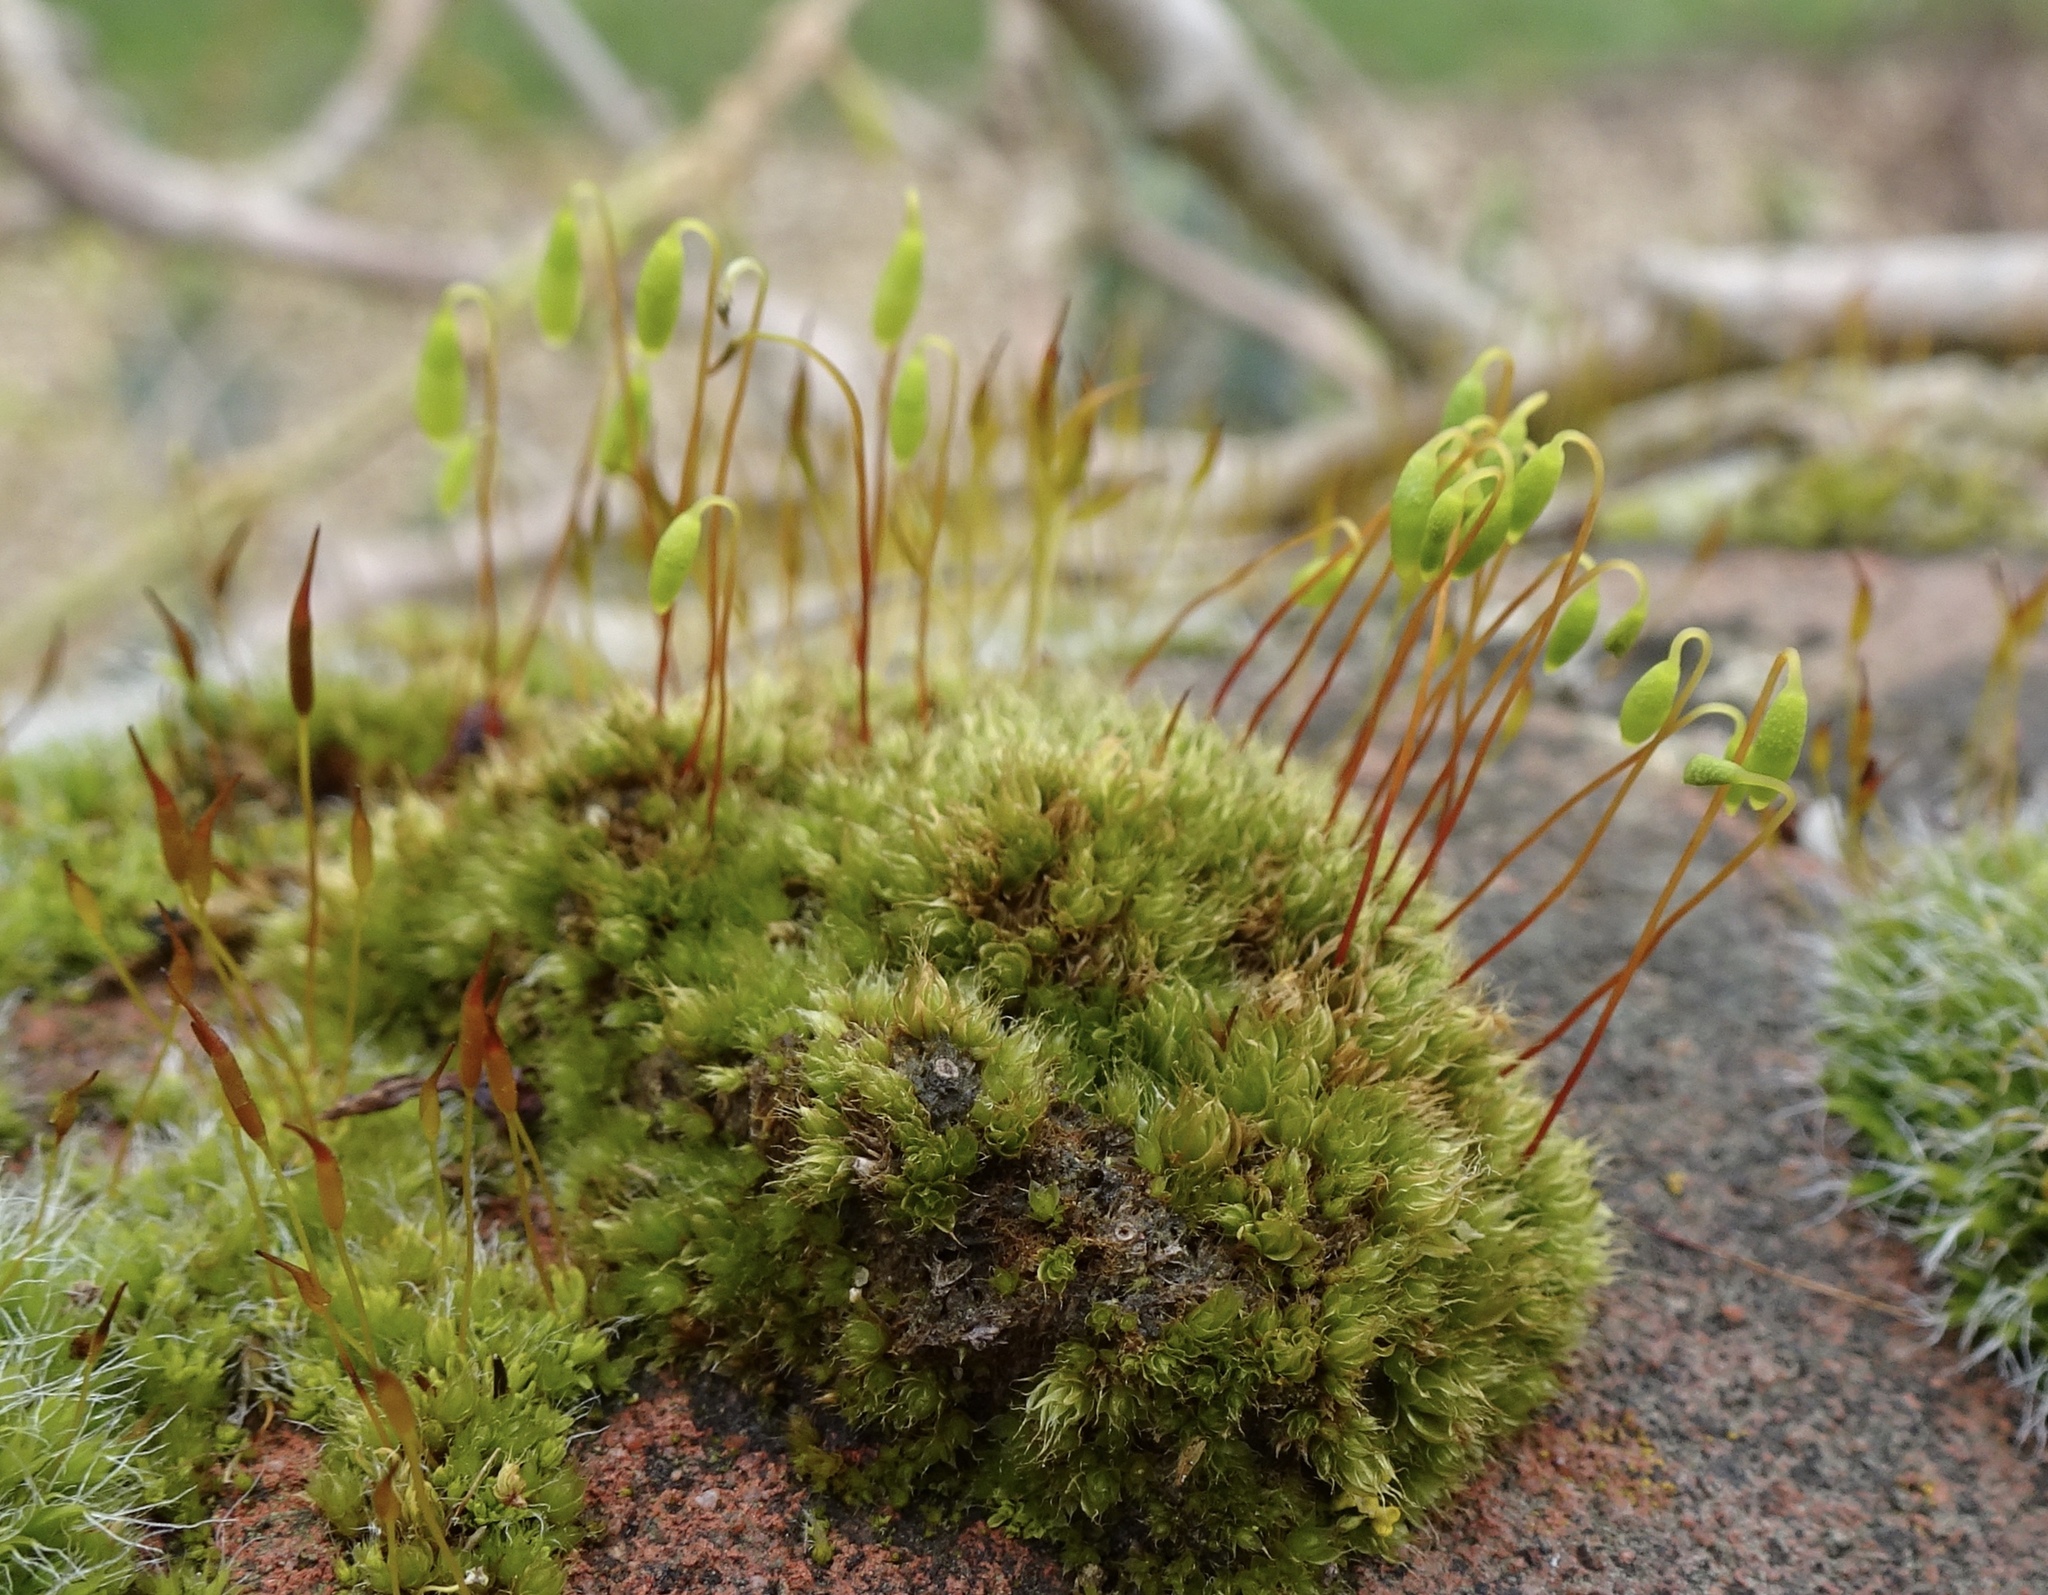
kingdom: Plantae
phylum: Bryophyta
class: Bryopsida
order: Bryales
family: Bryaceae
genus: Rosulabryum
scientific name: Rosulabryum capillare
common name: Capillary thread-moss
